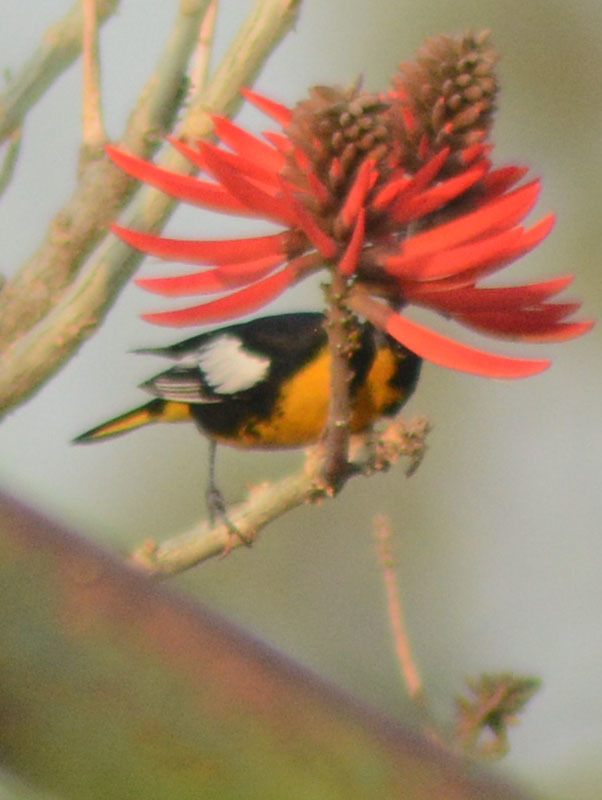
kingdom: Animalia
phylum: Chordata
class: Aves
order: Passeriformes
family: Icteridae
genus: Icterus
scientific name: Icterus abeillei
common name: Black-backed oriole
